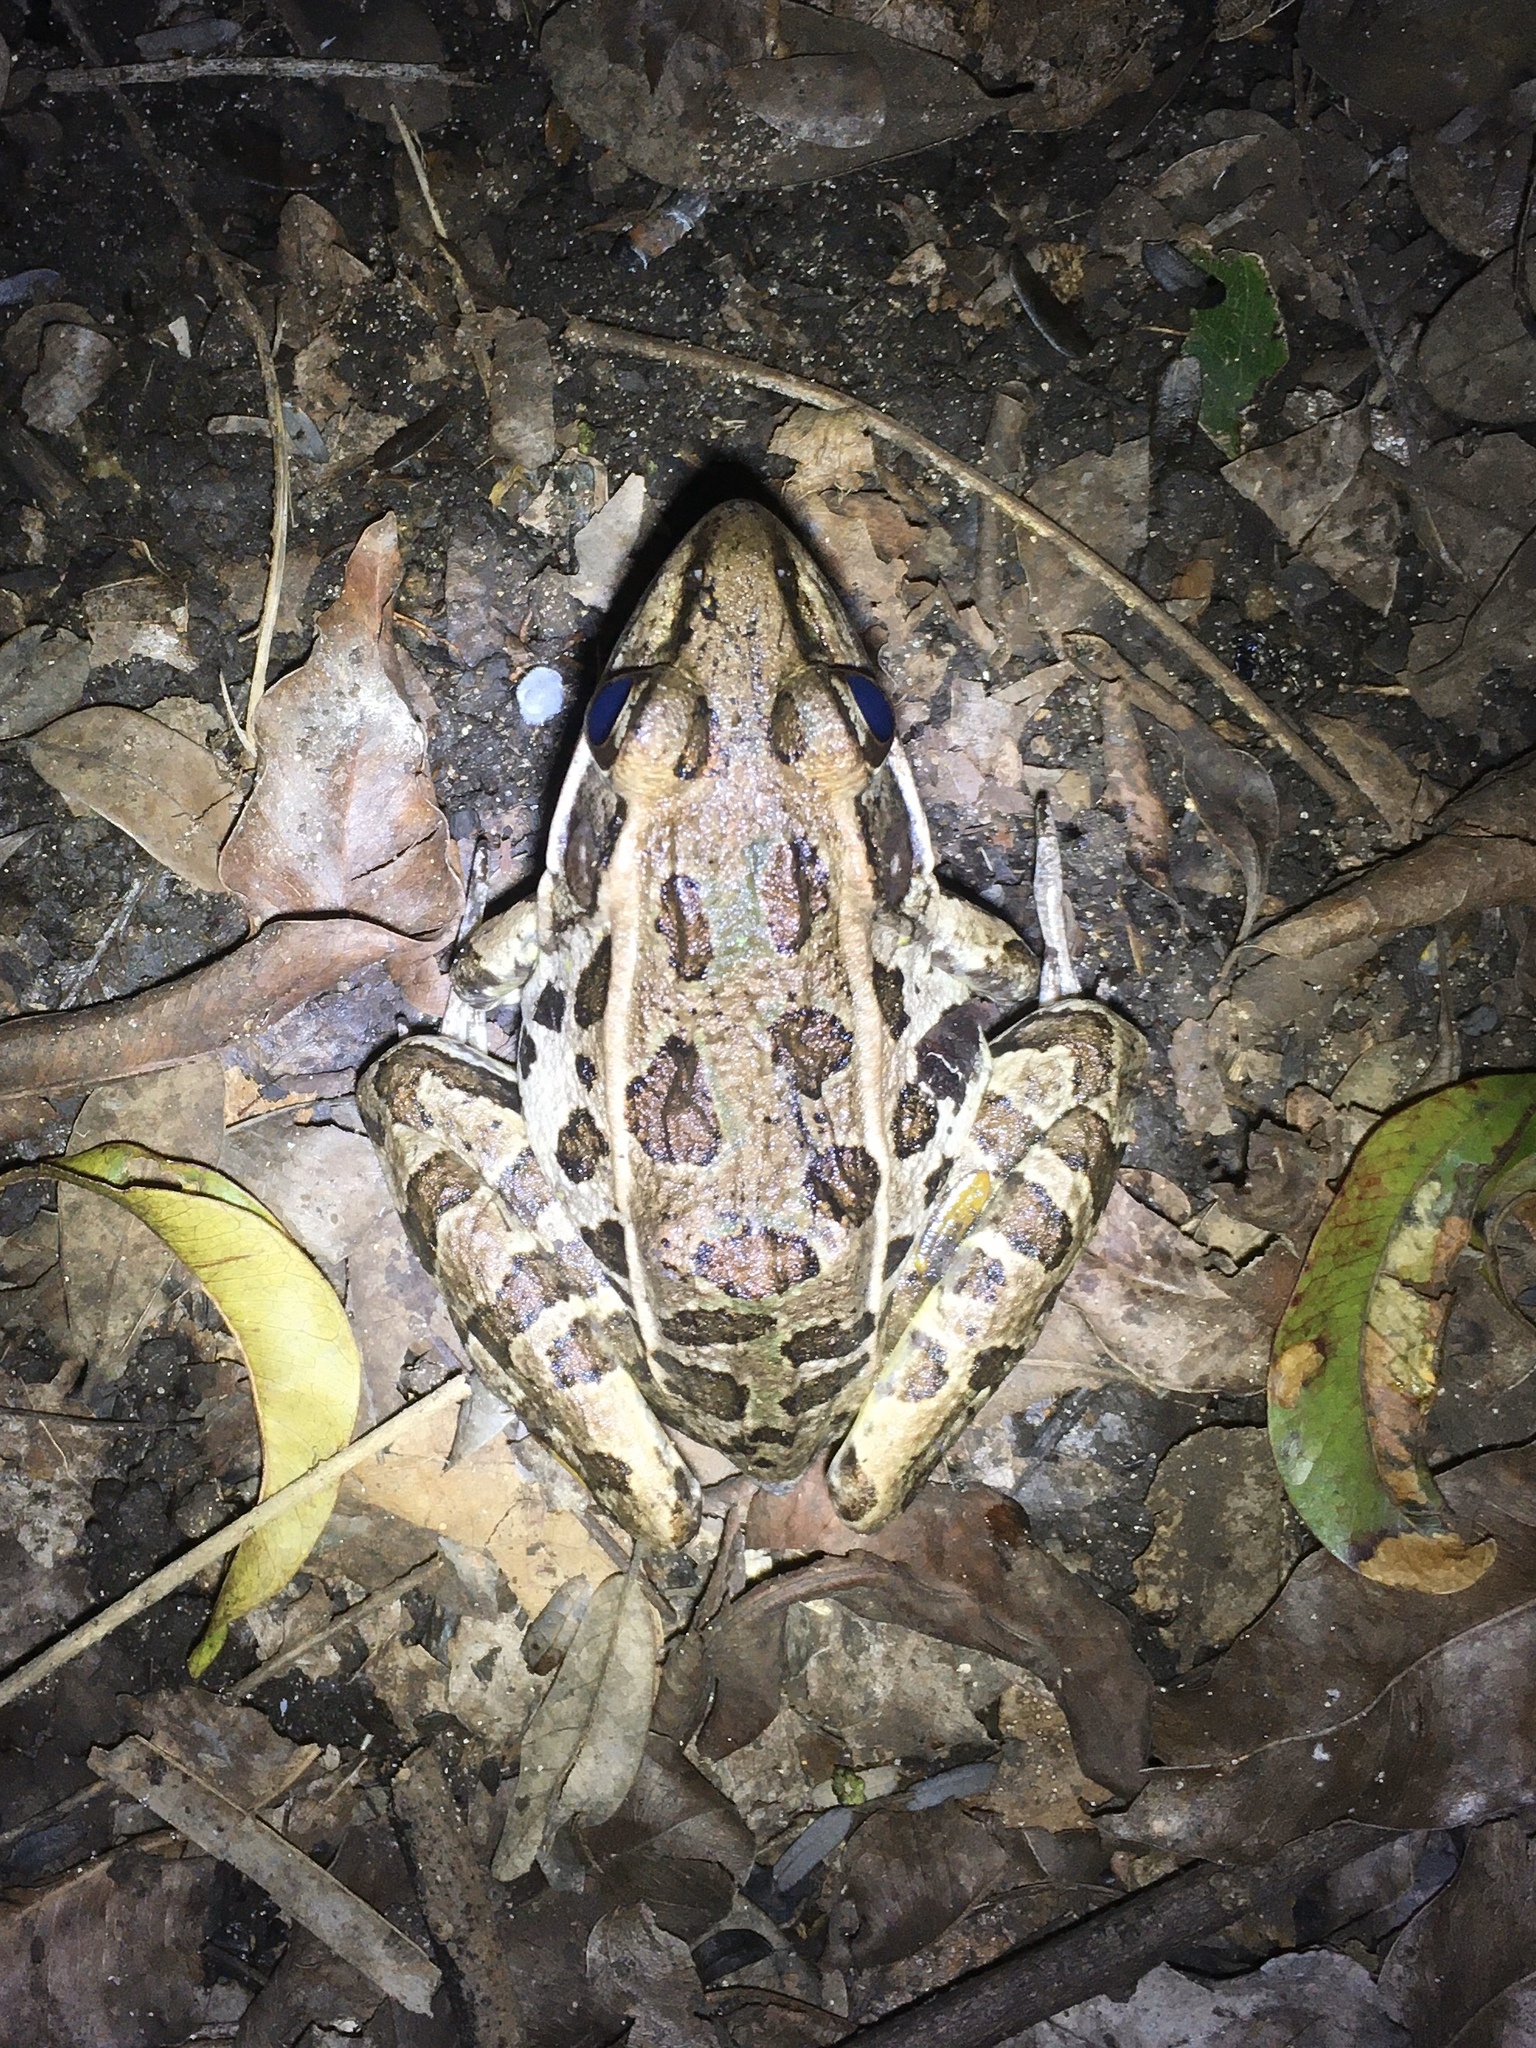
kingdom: Animalia
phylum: Chordata
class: Amphibia
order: Anura
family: Ranidae
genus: Lithobates
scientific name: Lithobates sphenocephalus
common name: Southern leopard frog
